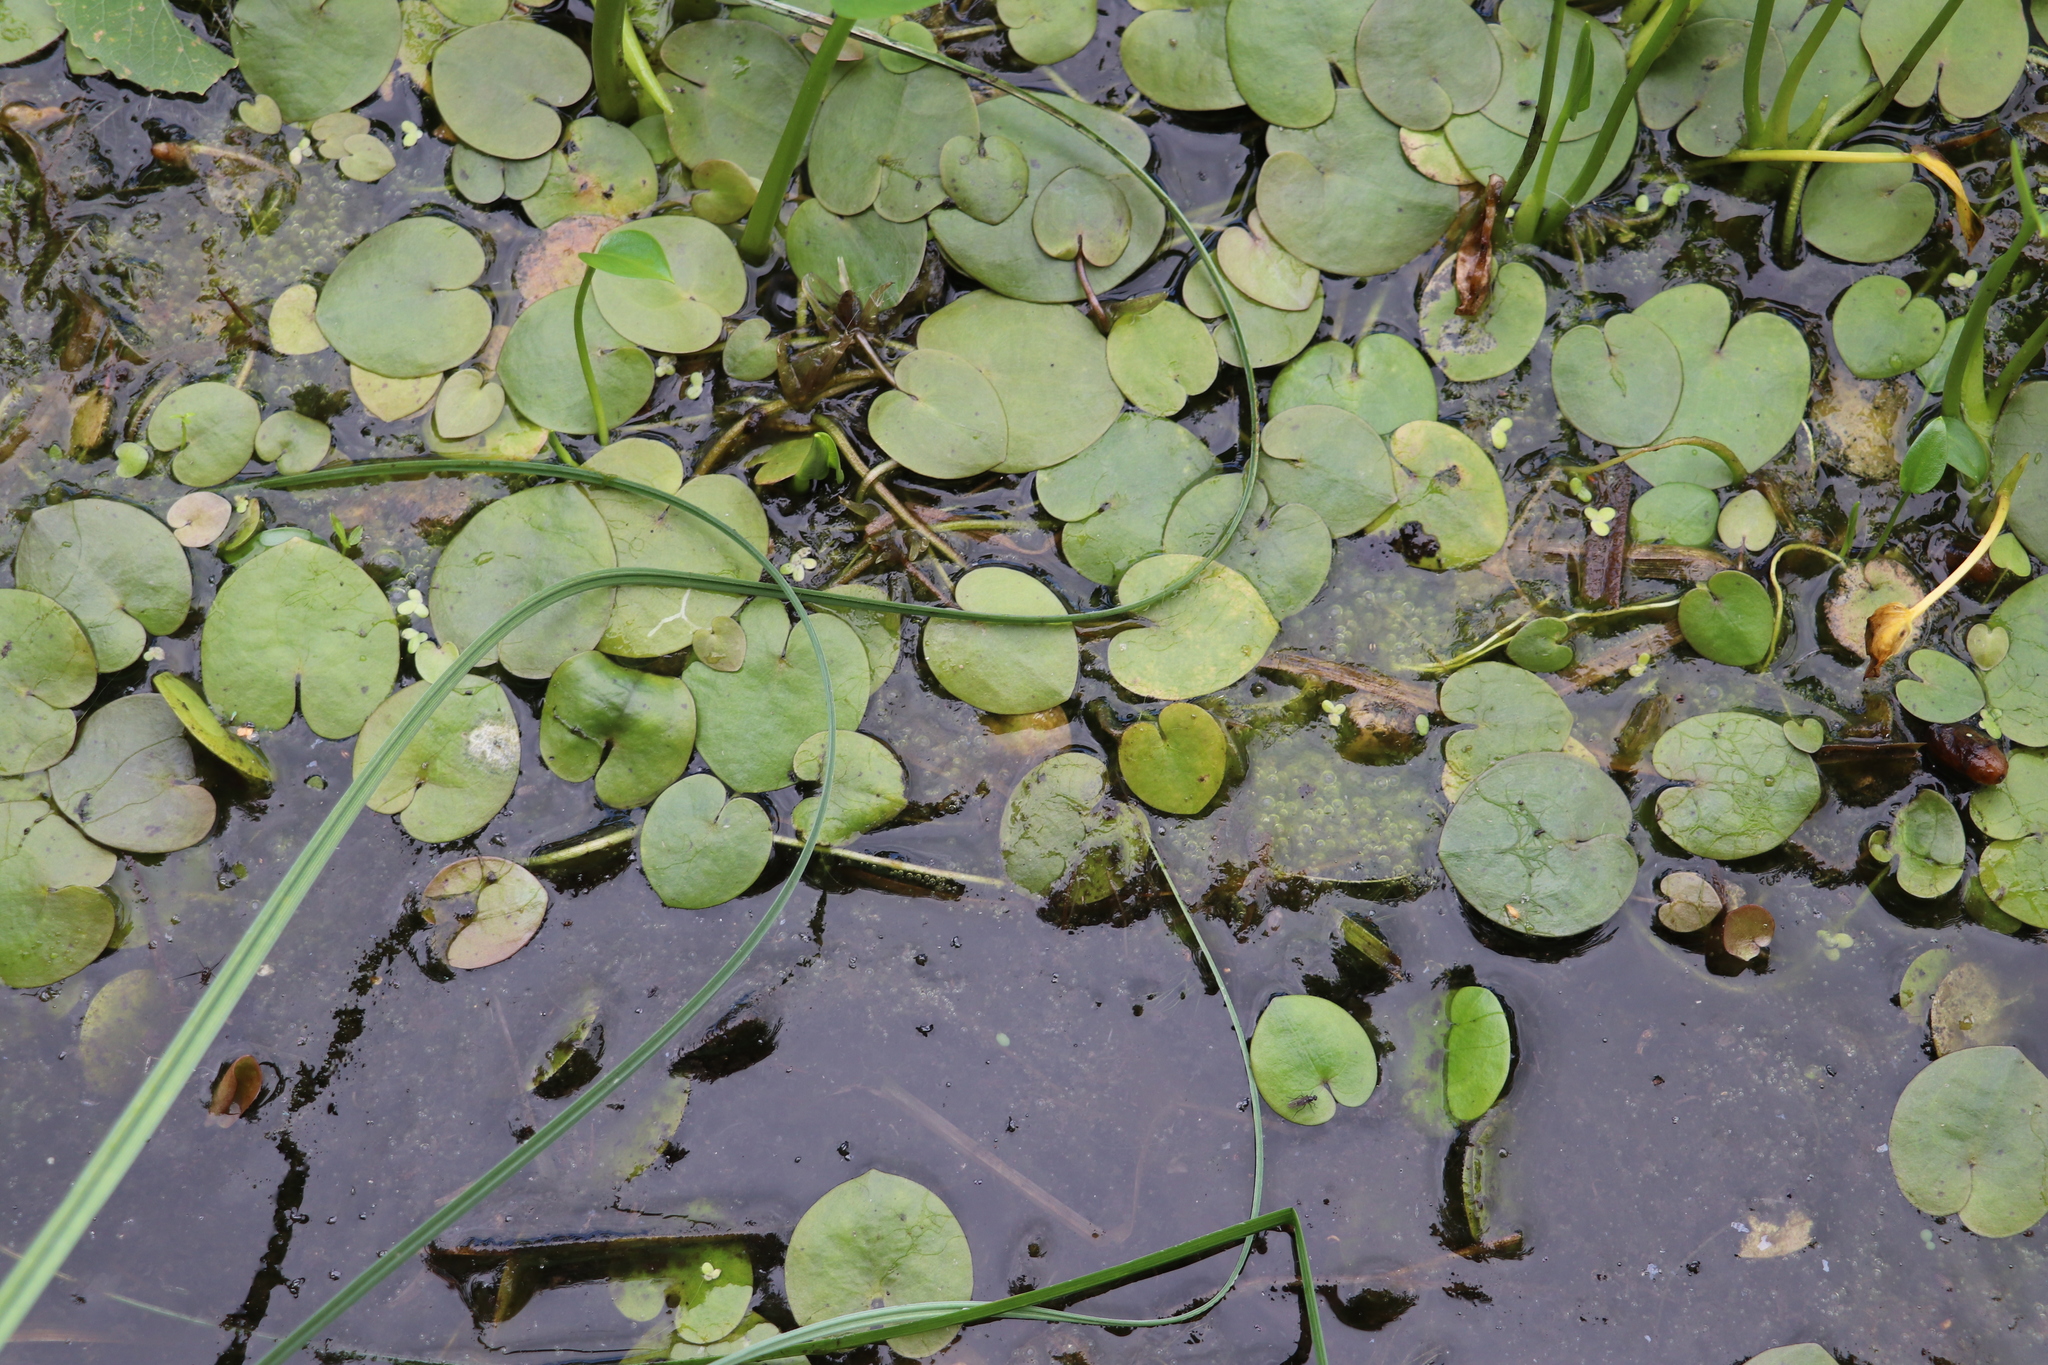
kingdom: Plantae
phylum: Tracheophyta
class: Liliopsida
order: Alismatales
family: Hydrocharitaceae
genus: Hydrocharis
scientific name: Hydrocharis morsus-ranae
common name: Frogbit
